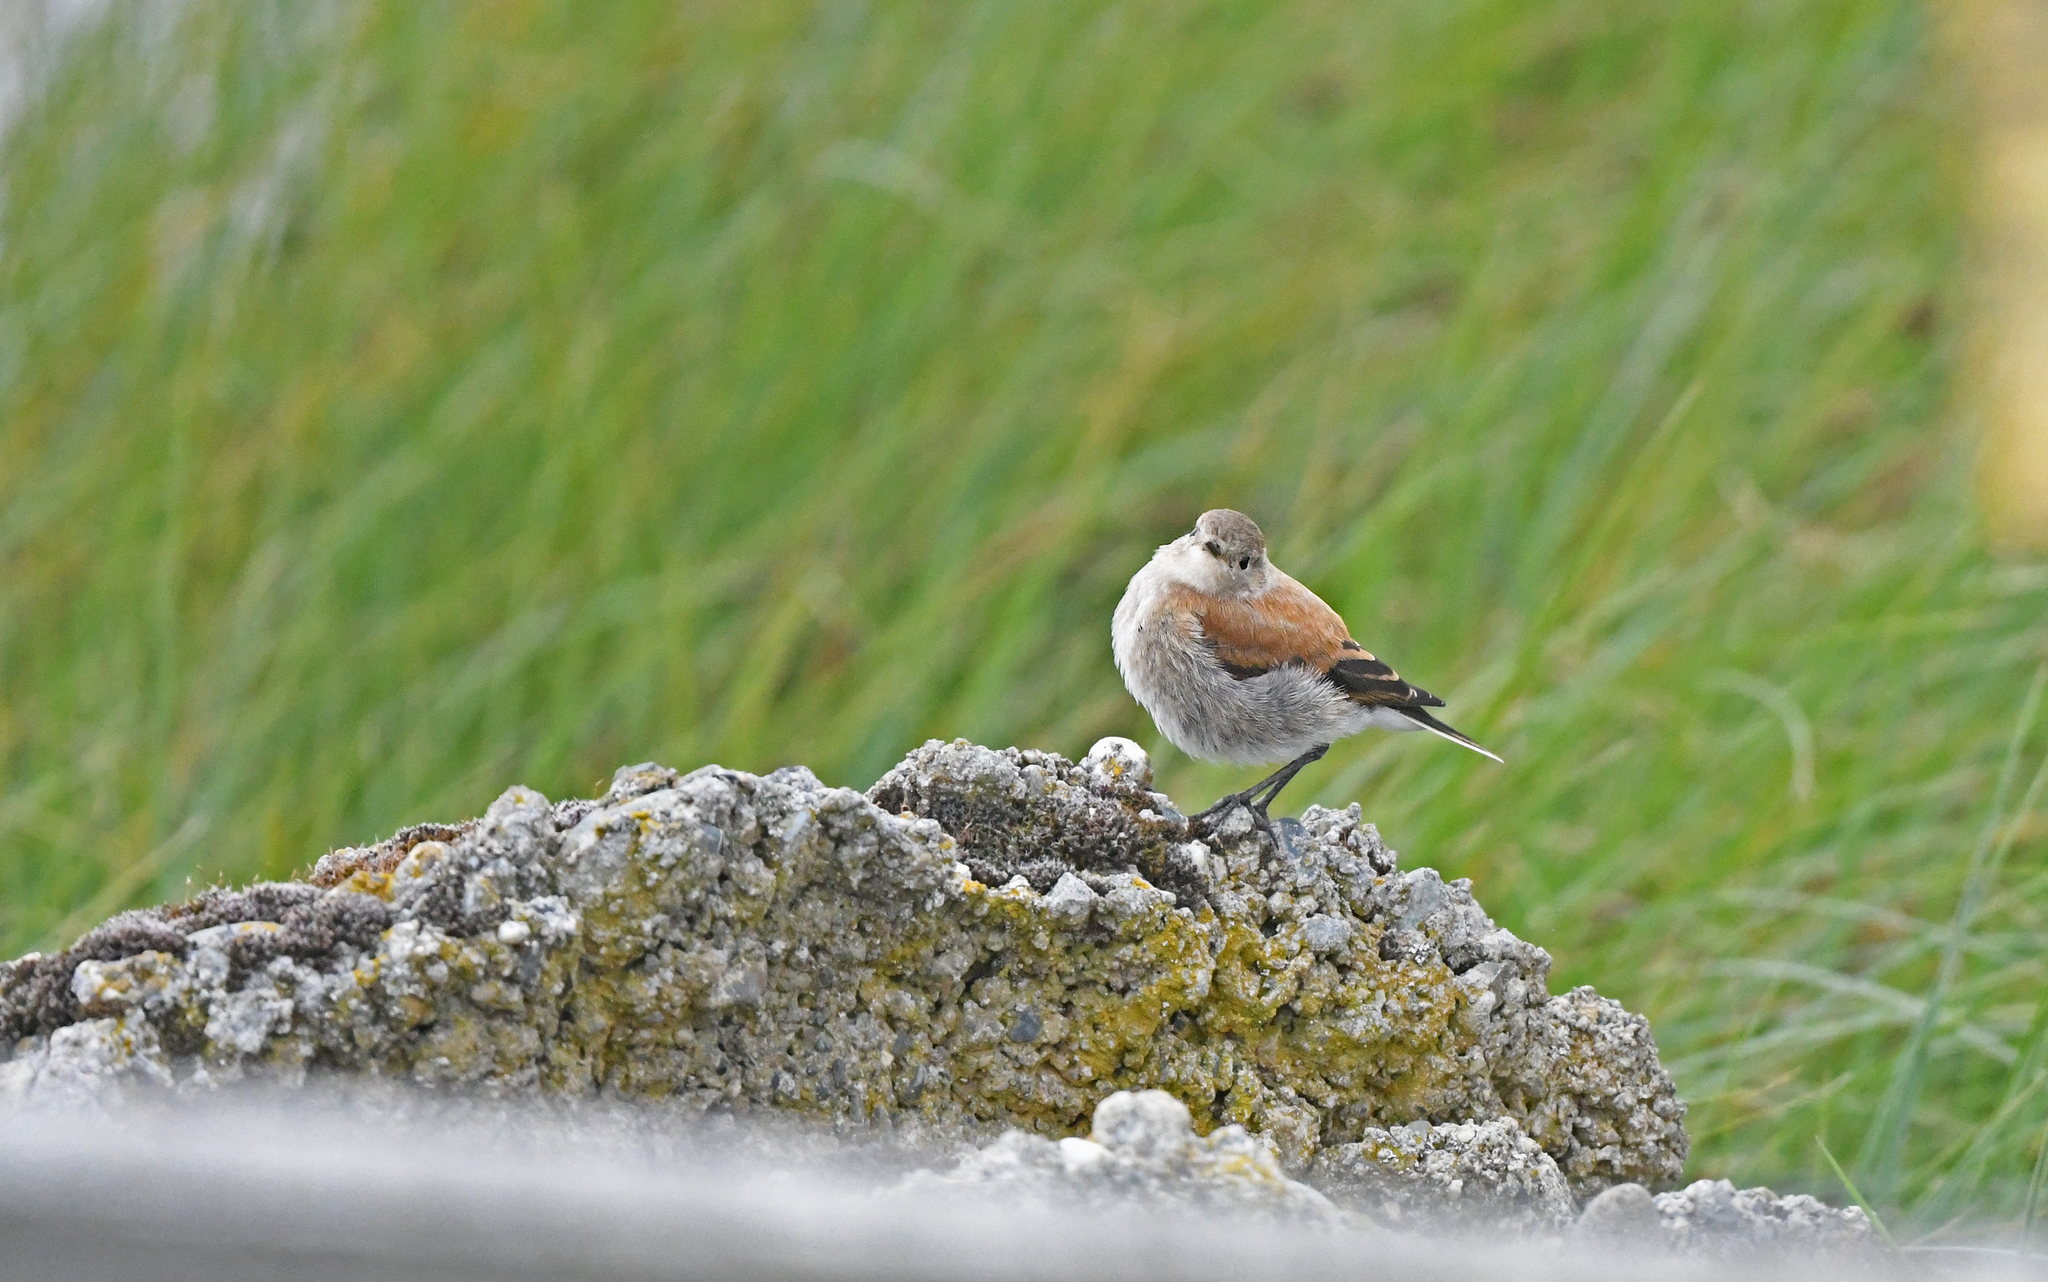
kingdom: Animalia
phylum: Chordata
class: Aves
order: Passeriformes
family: Tyrannidae
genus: Lessonia
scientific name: Lessonia rufa
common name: Austral negrito
